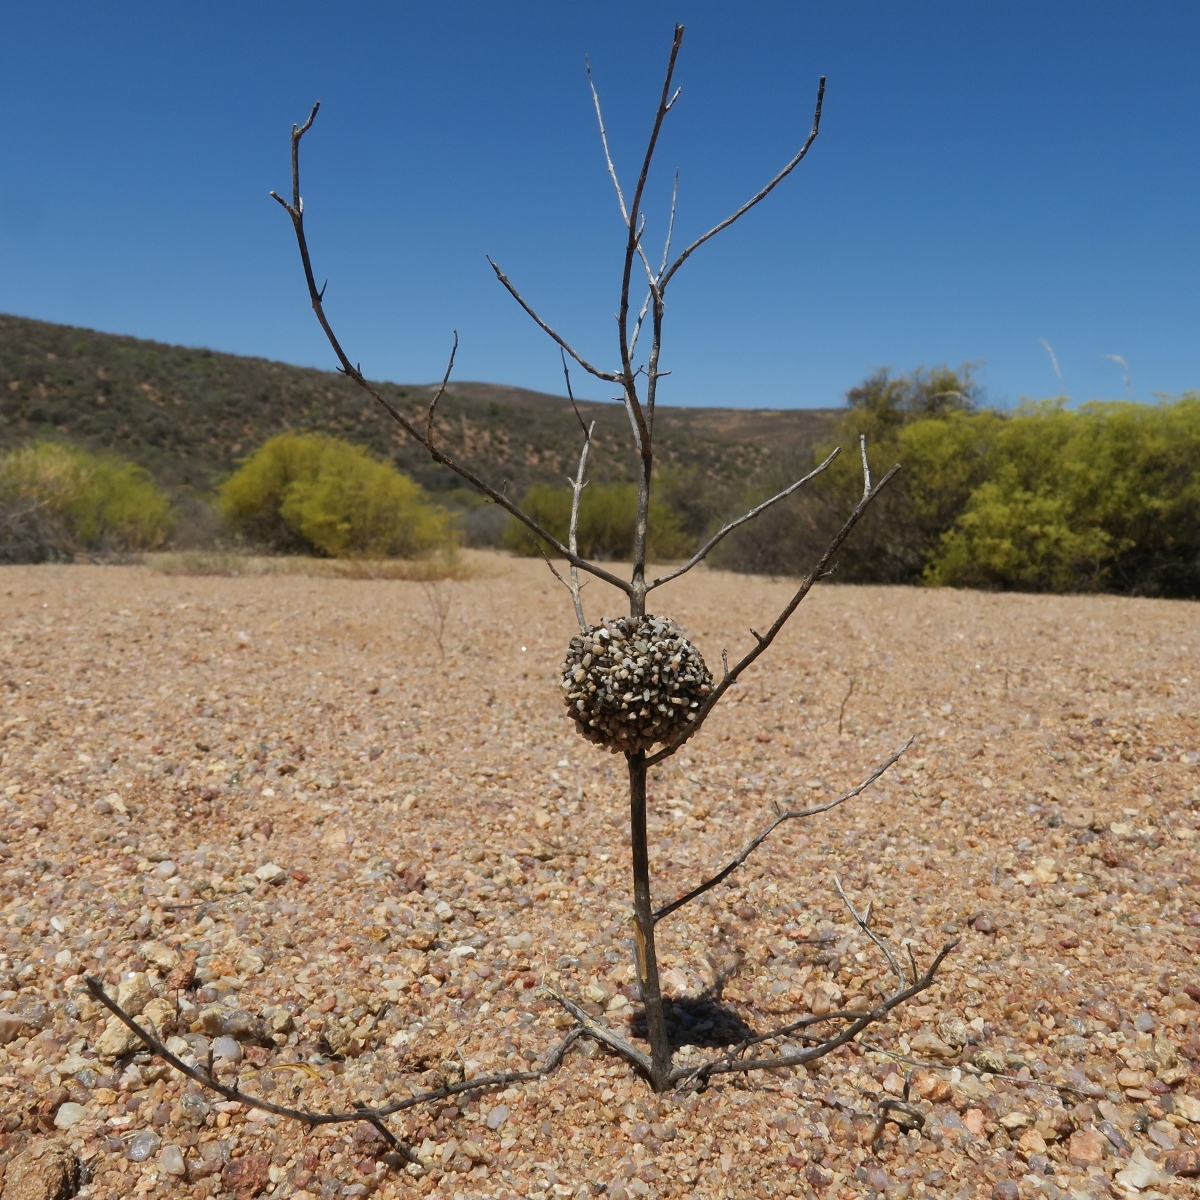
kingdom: Animalia
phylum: Arthropoda
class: Insecta
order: Hymenoptera
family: Megachilidae
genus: Othinosmia
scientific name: Othinosmia globicola
